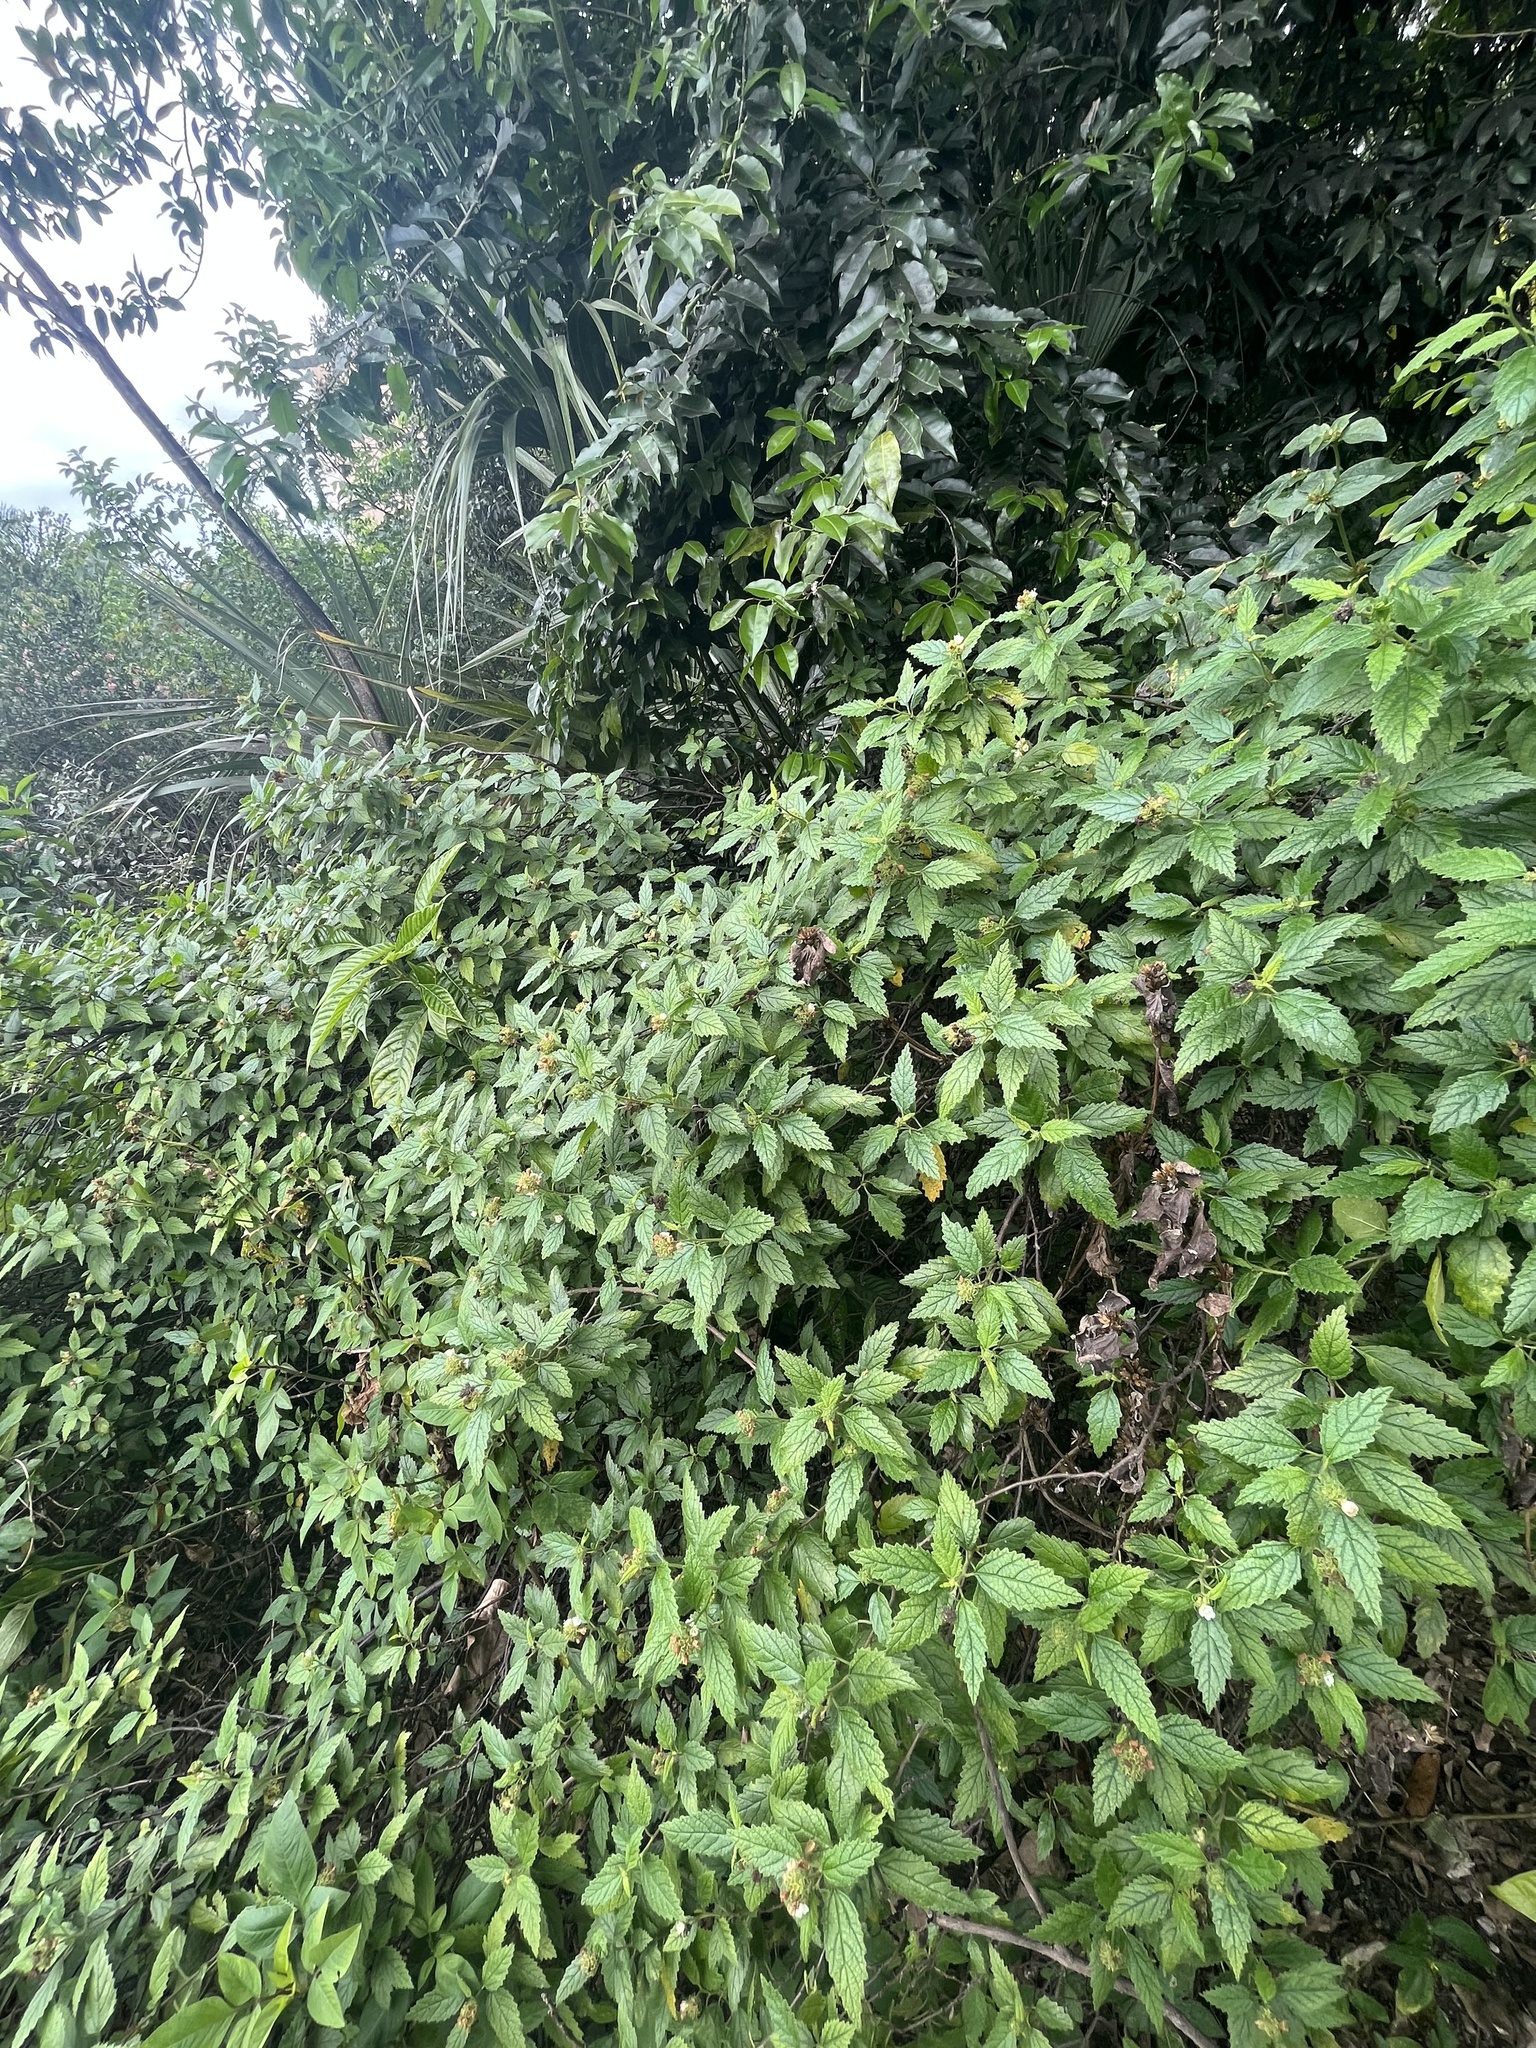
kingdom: Plantae
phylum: Tracheophyta
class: Magnoliopsida
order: Boraginales
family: Cordiaceae
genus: Varronia
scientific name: Varronia bullata
